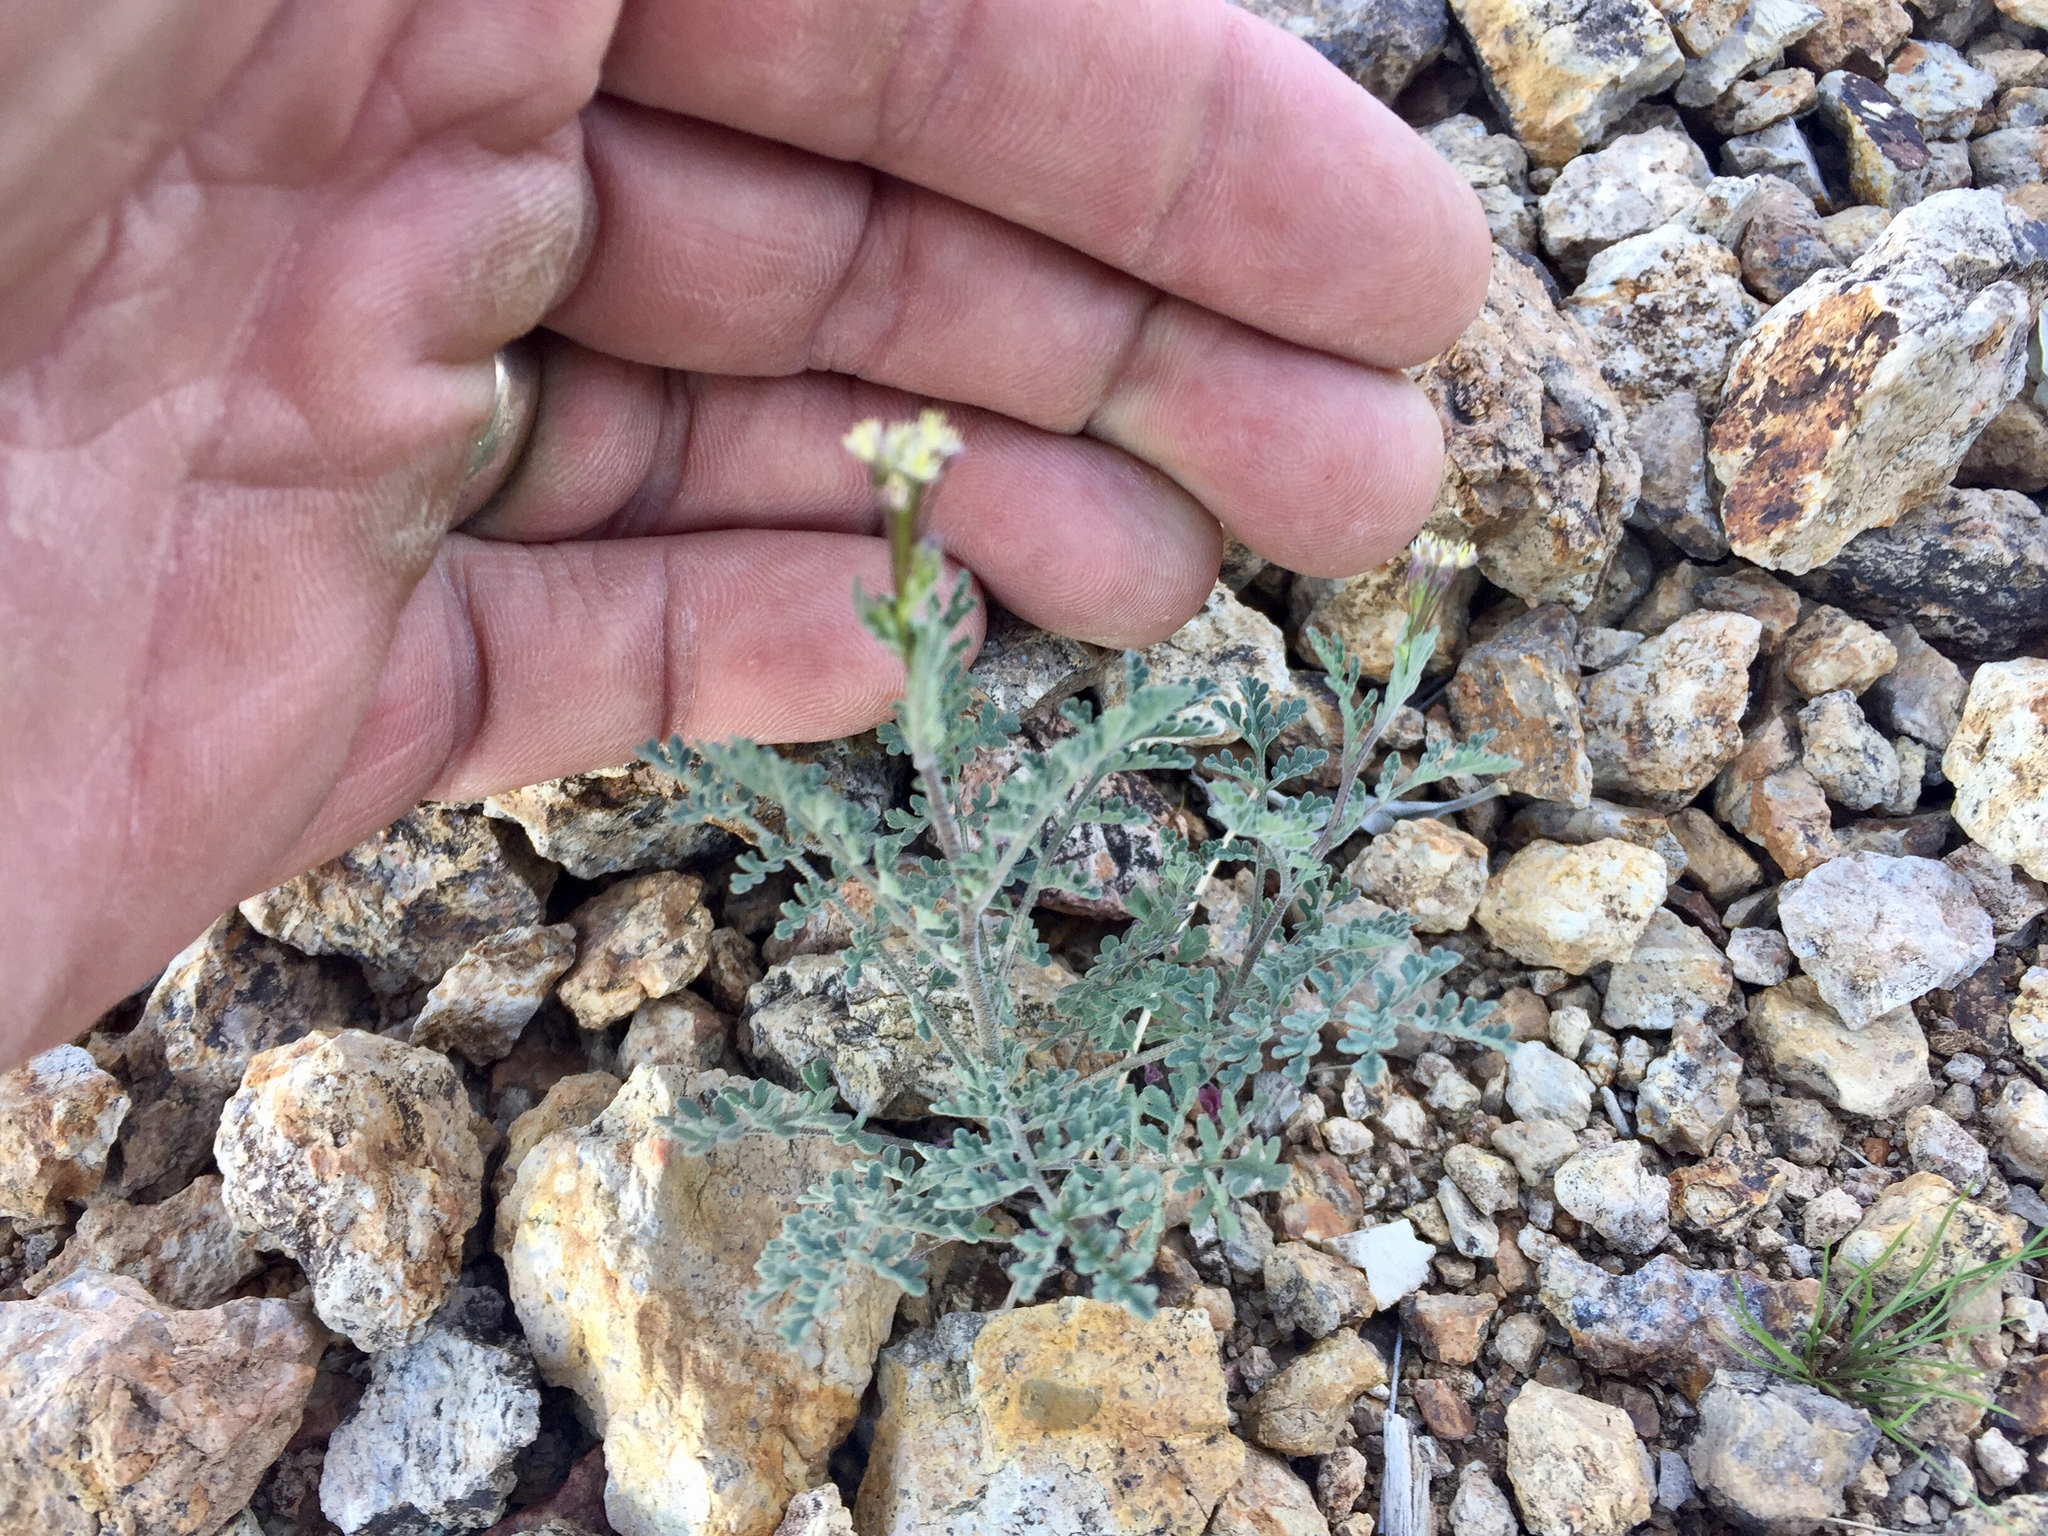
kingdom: Plantae
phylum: Tracheophyta
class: Magnoliopsida
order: Brassicales
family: Brassicaceae
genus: Descurainia
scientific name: Descurainia pinnata
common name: Western tansy mustard
